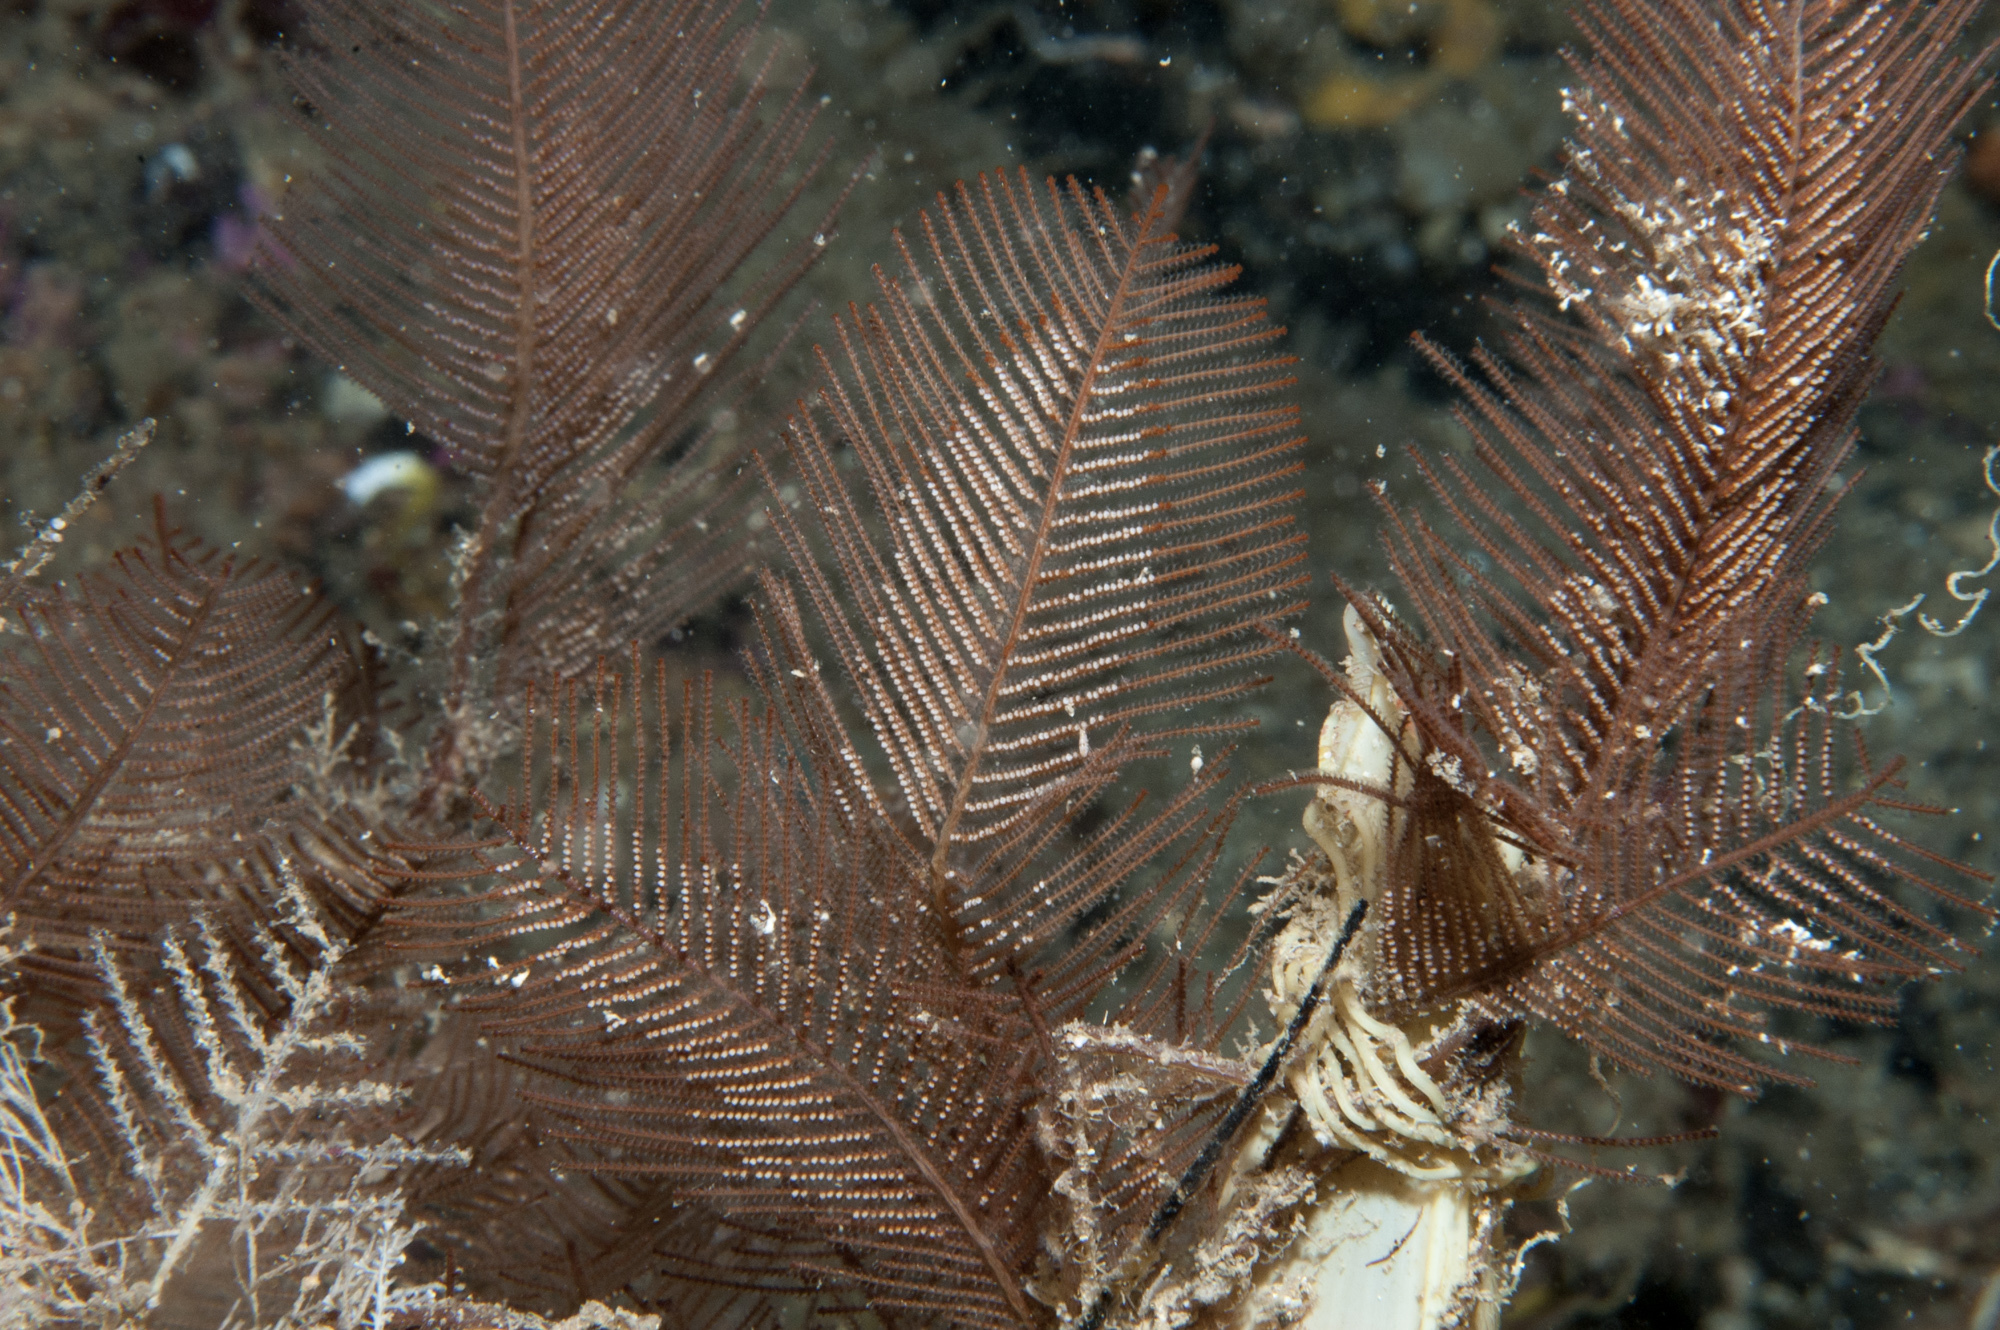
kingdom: Animalia
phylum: Cnidaria
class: Hydrozoa
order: Leptothecata
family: Sertulariidae
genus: Diphasia
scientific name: Diphasia alata
